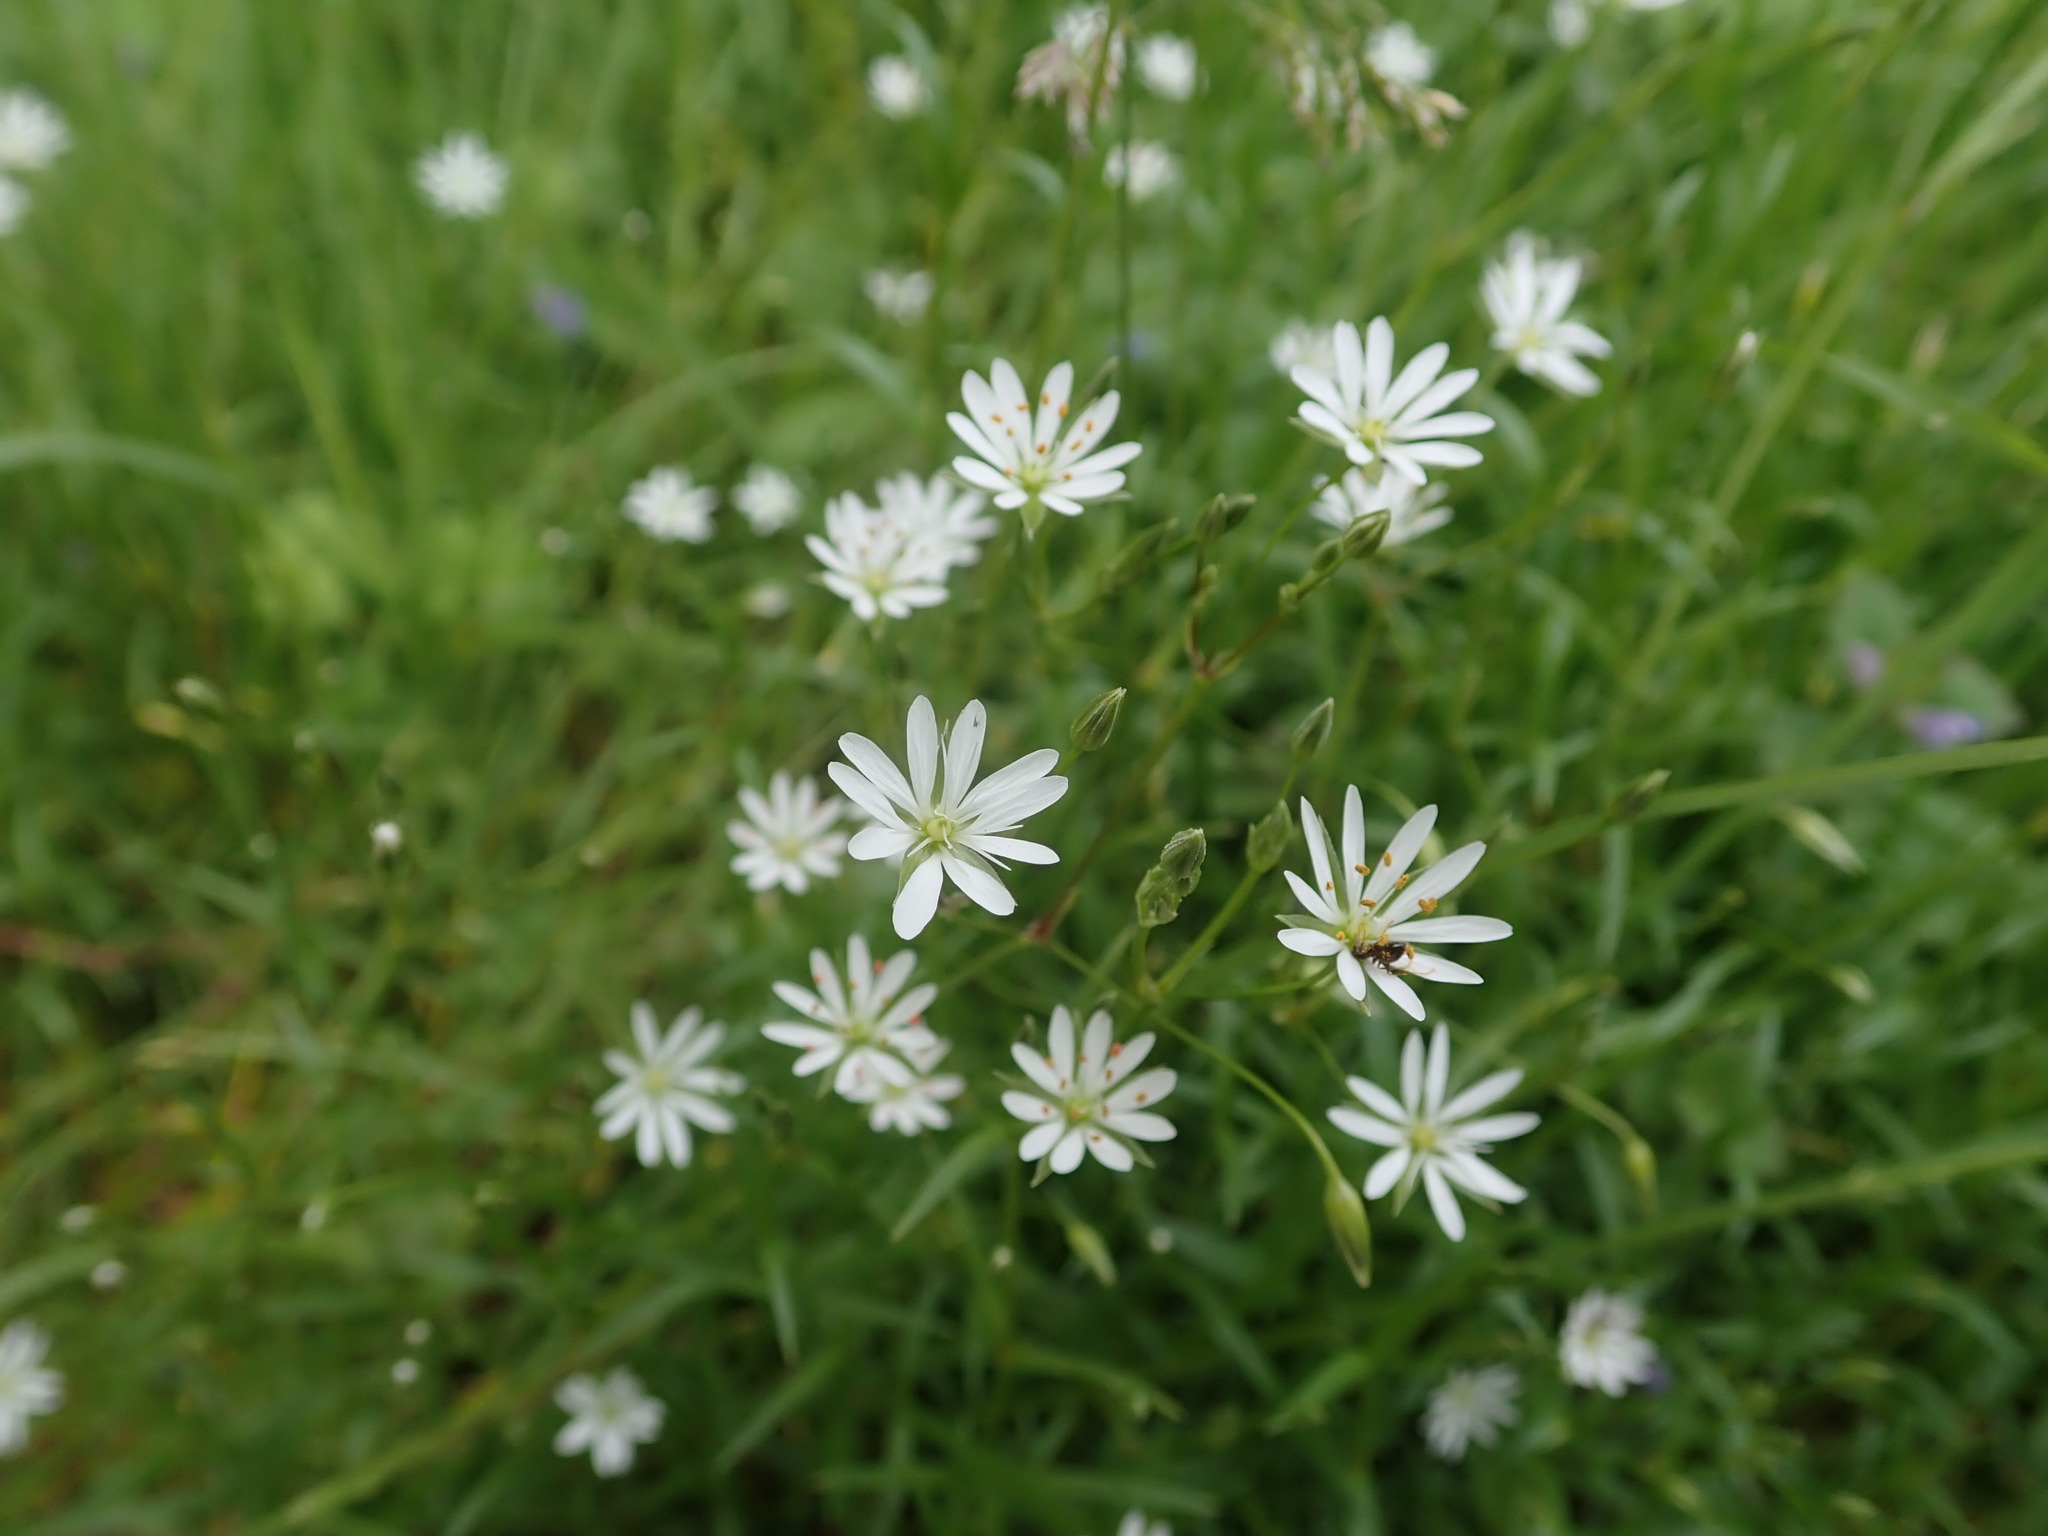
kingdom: Plantae
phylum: Tracheophyta
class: Magnoliopsida
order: Caryophyllales
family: Caryophyllaceae
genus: Stellaria
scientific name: Stellaria graminea
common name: Grass-like starwort
